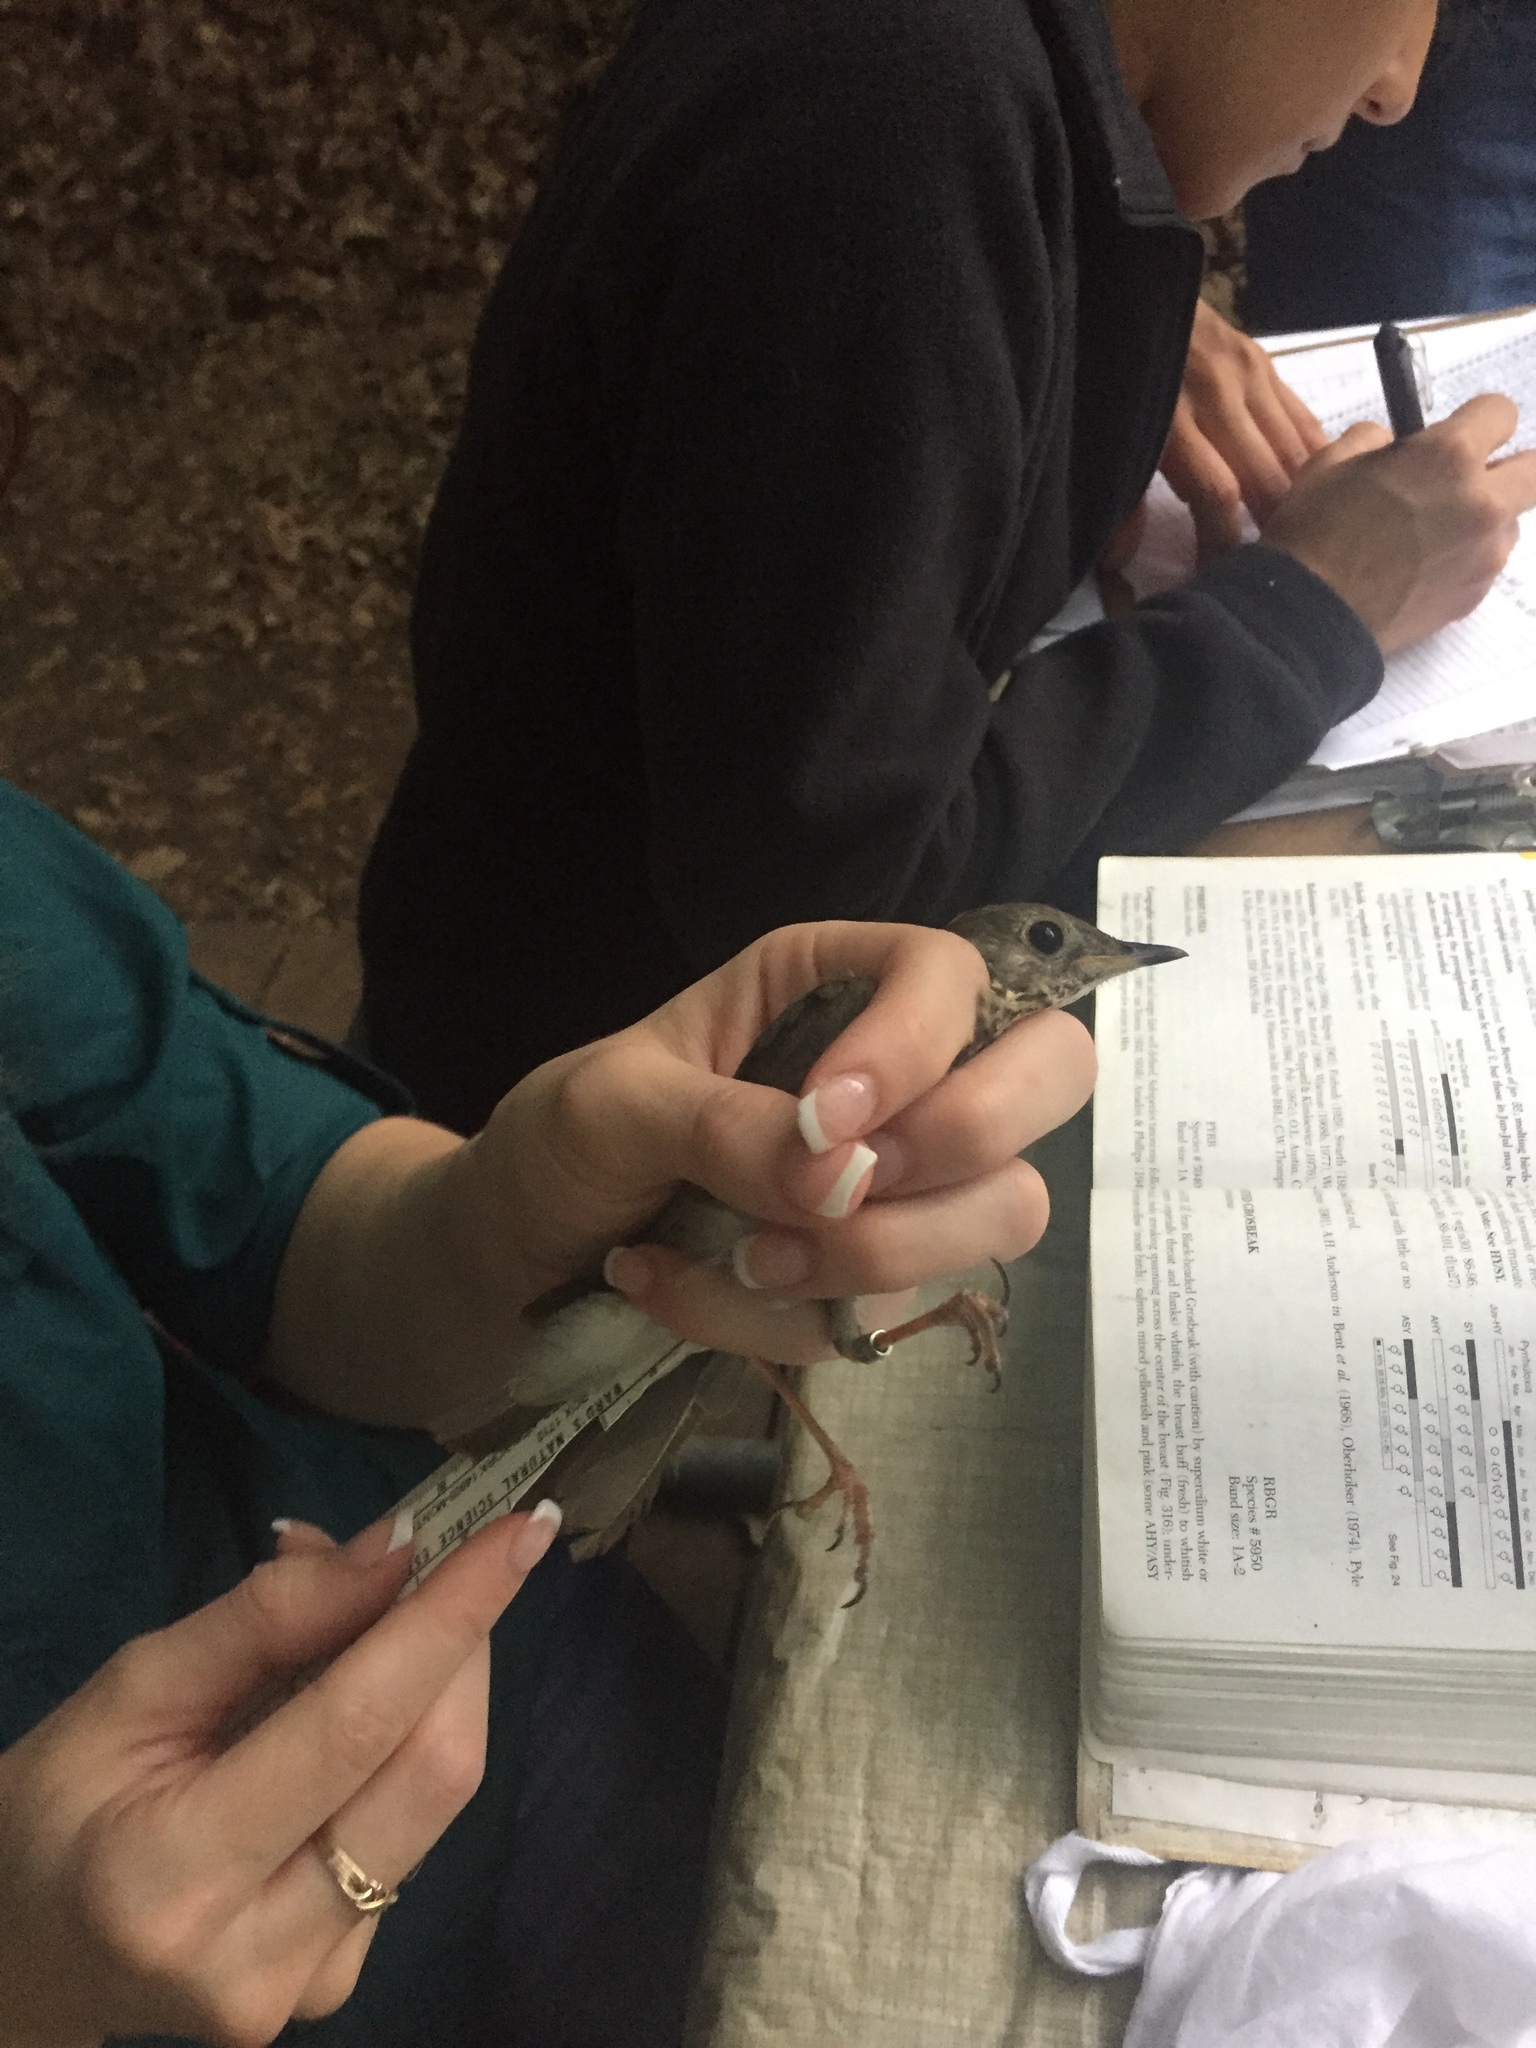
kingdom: Animalia
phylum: Chordata
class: Aves
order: Passeriformes
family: Turdidae
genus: Catharus
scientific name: Catharus minimus
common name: Grey-cheeked thrush
